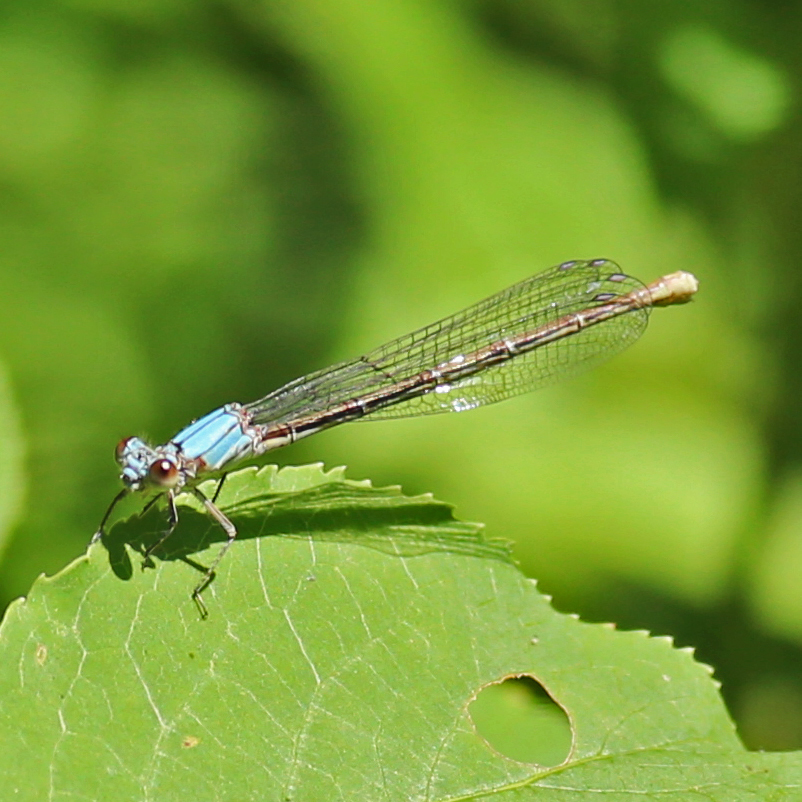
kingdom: Animalia
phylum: Arthropoda
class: Insecta
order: Odonata
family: Coenagrionidae
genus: Argia
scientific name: Argia moesta
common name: Powdered dancer
